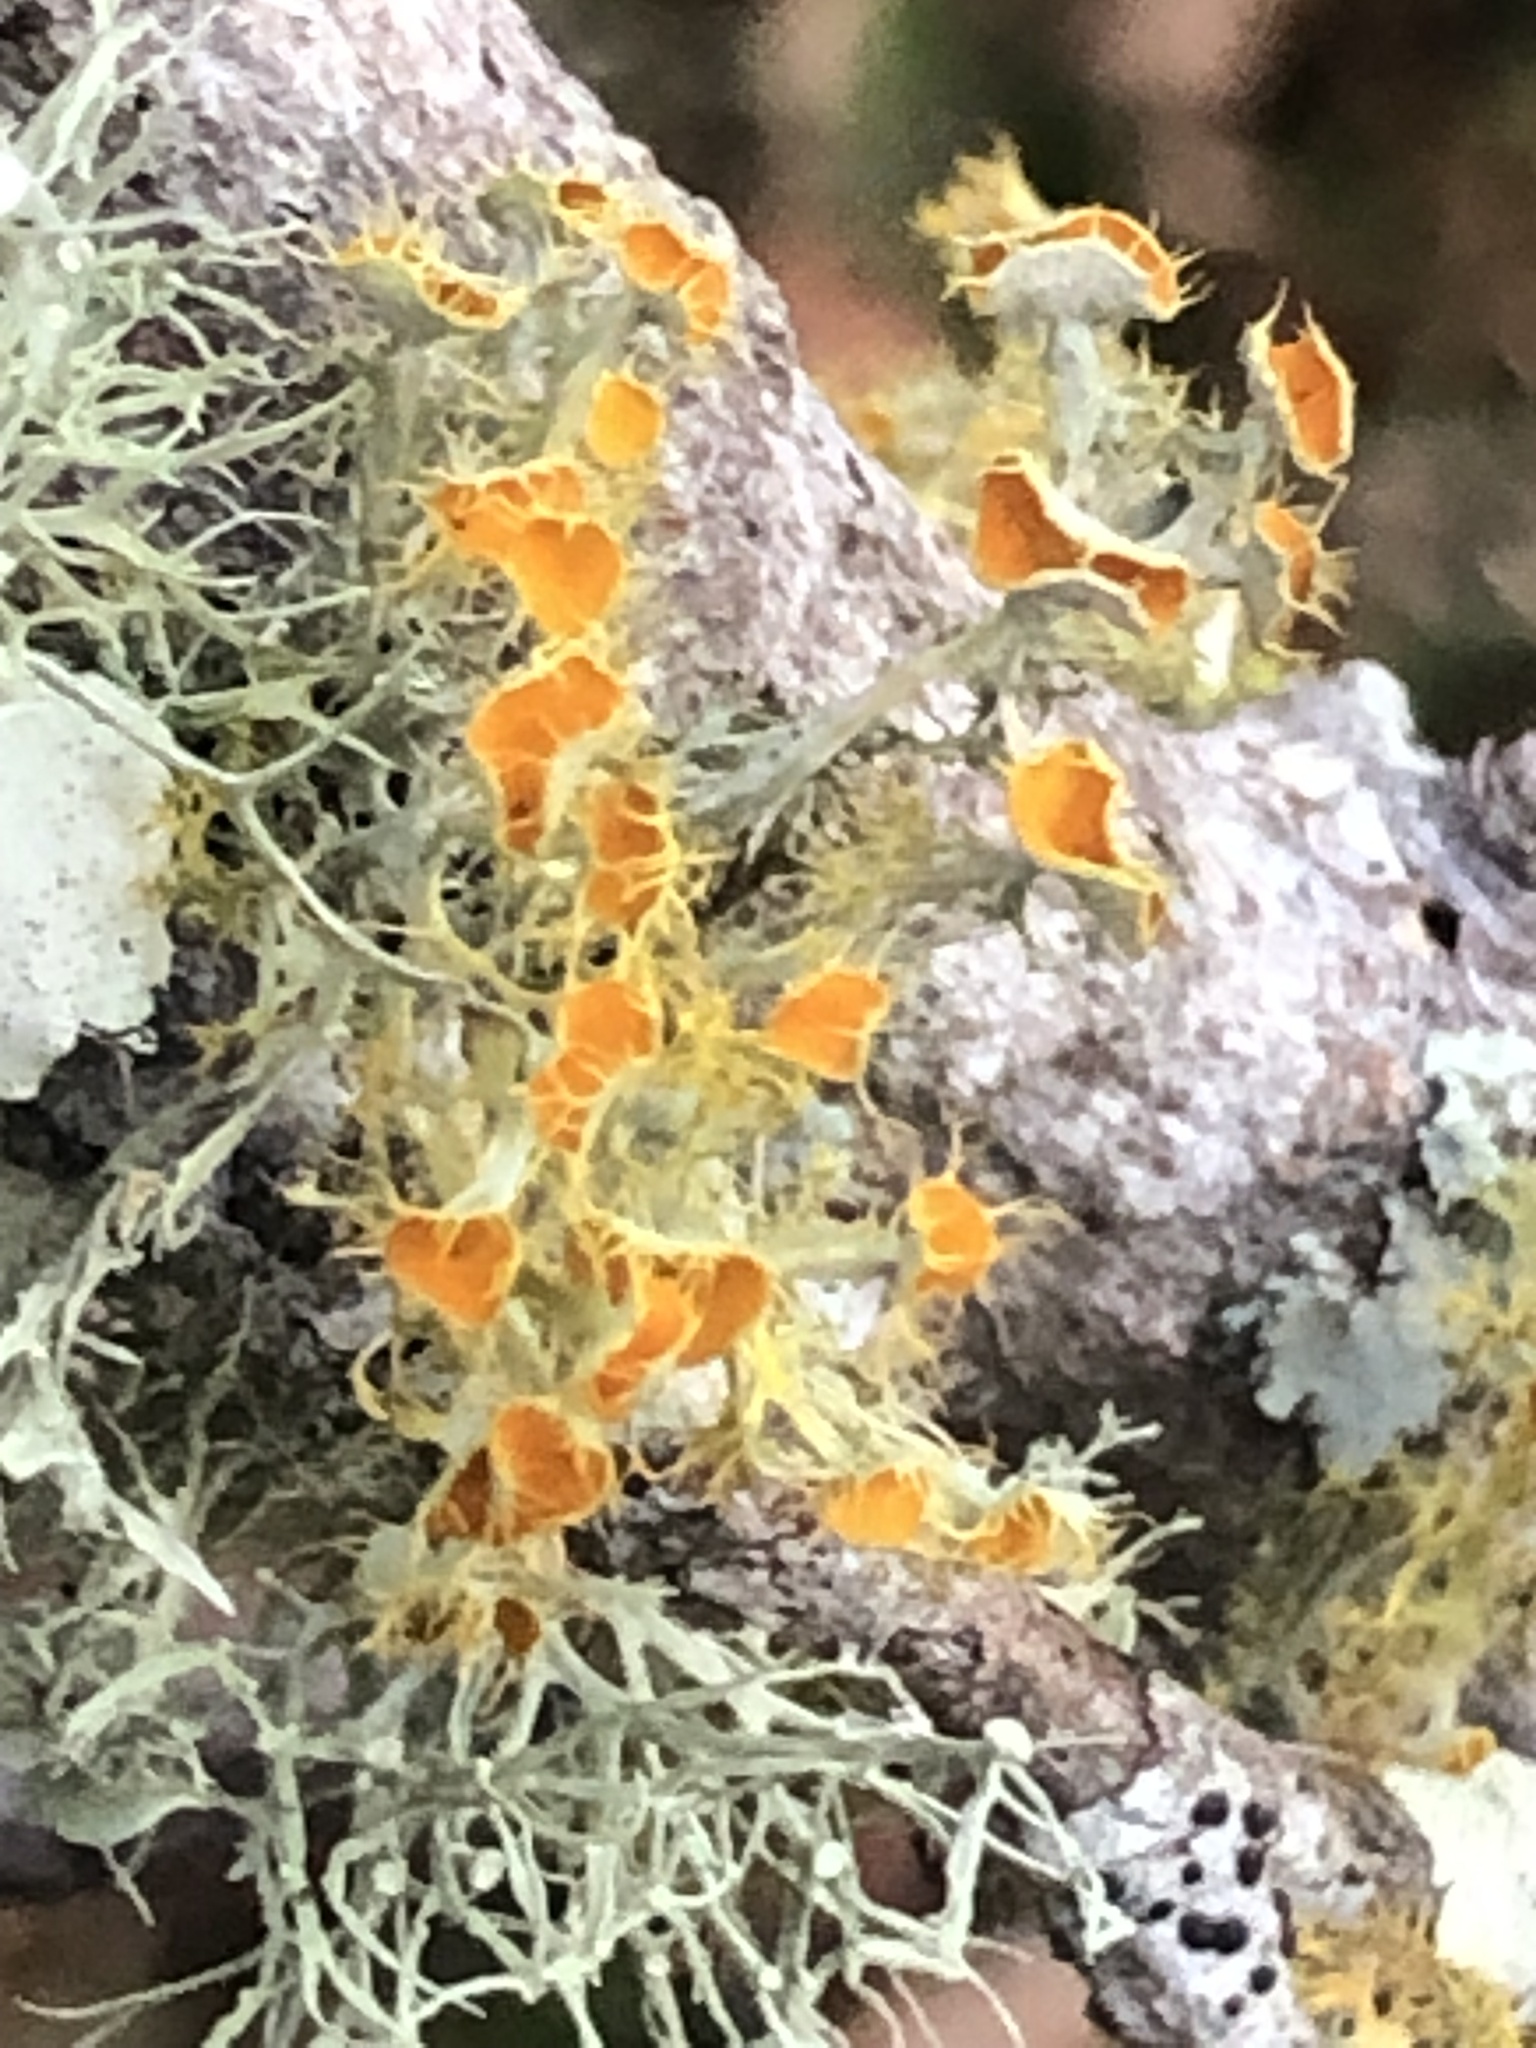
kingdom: Fungi
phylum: Ascomycota
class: Lecanoromycetes
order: Teloschistales
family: Teloschistaceae
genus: Niorma
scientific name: Niorma chrysophthalma
